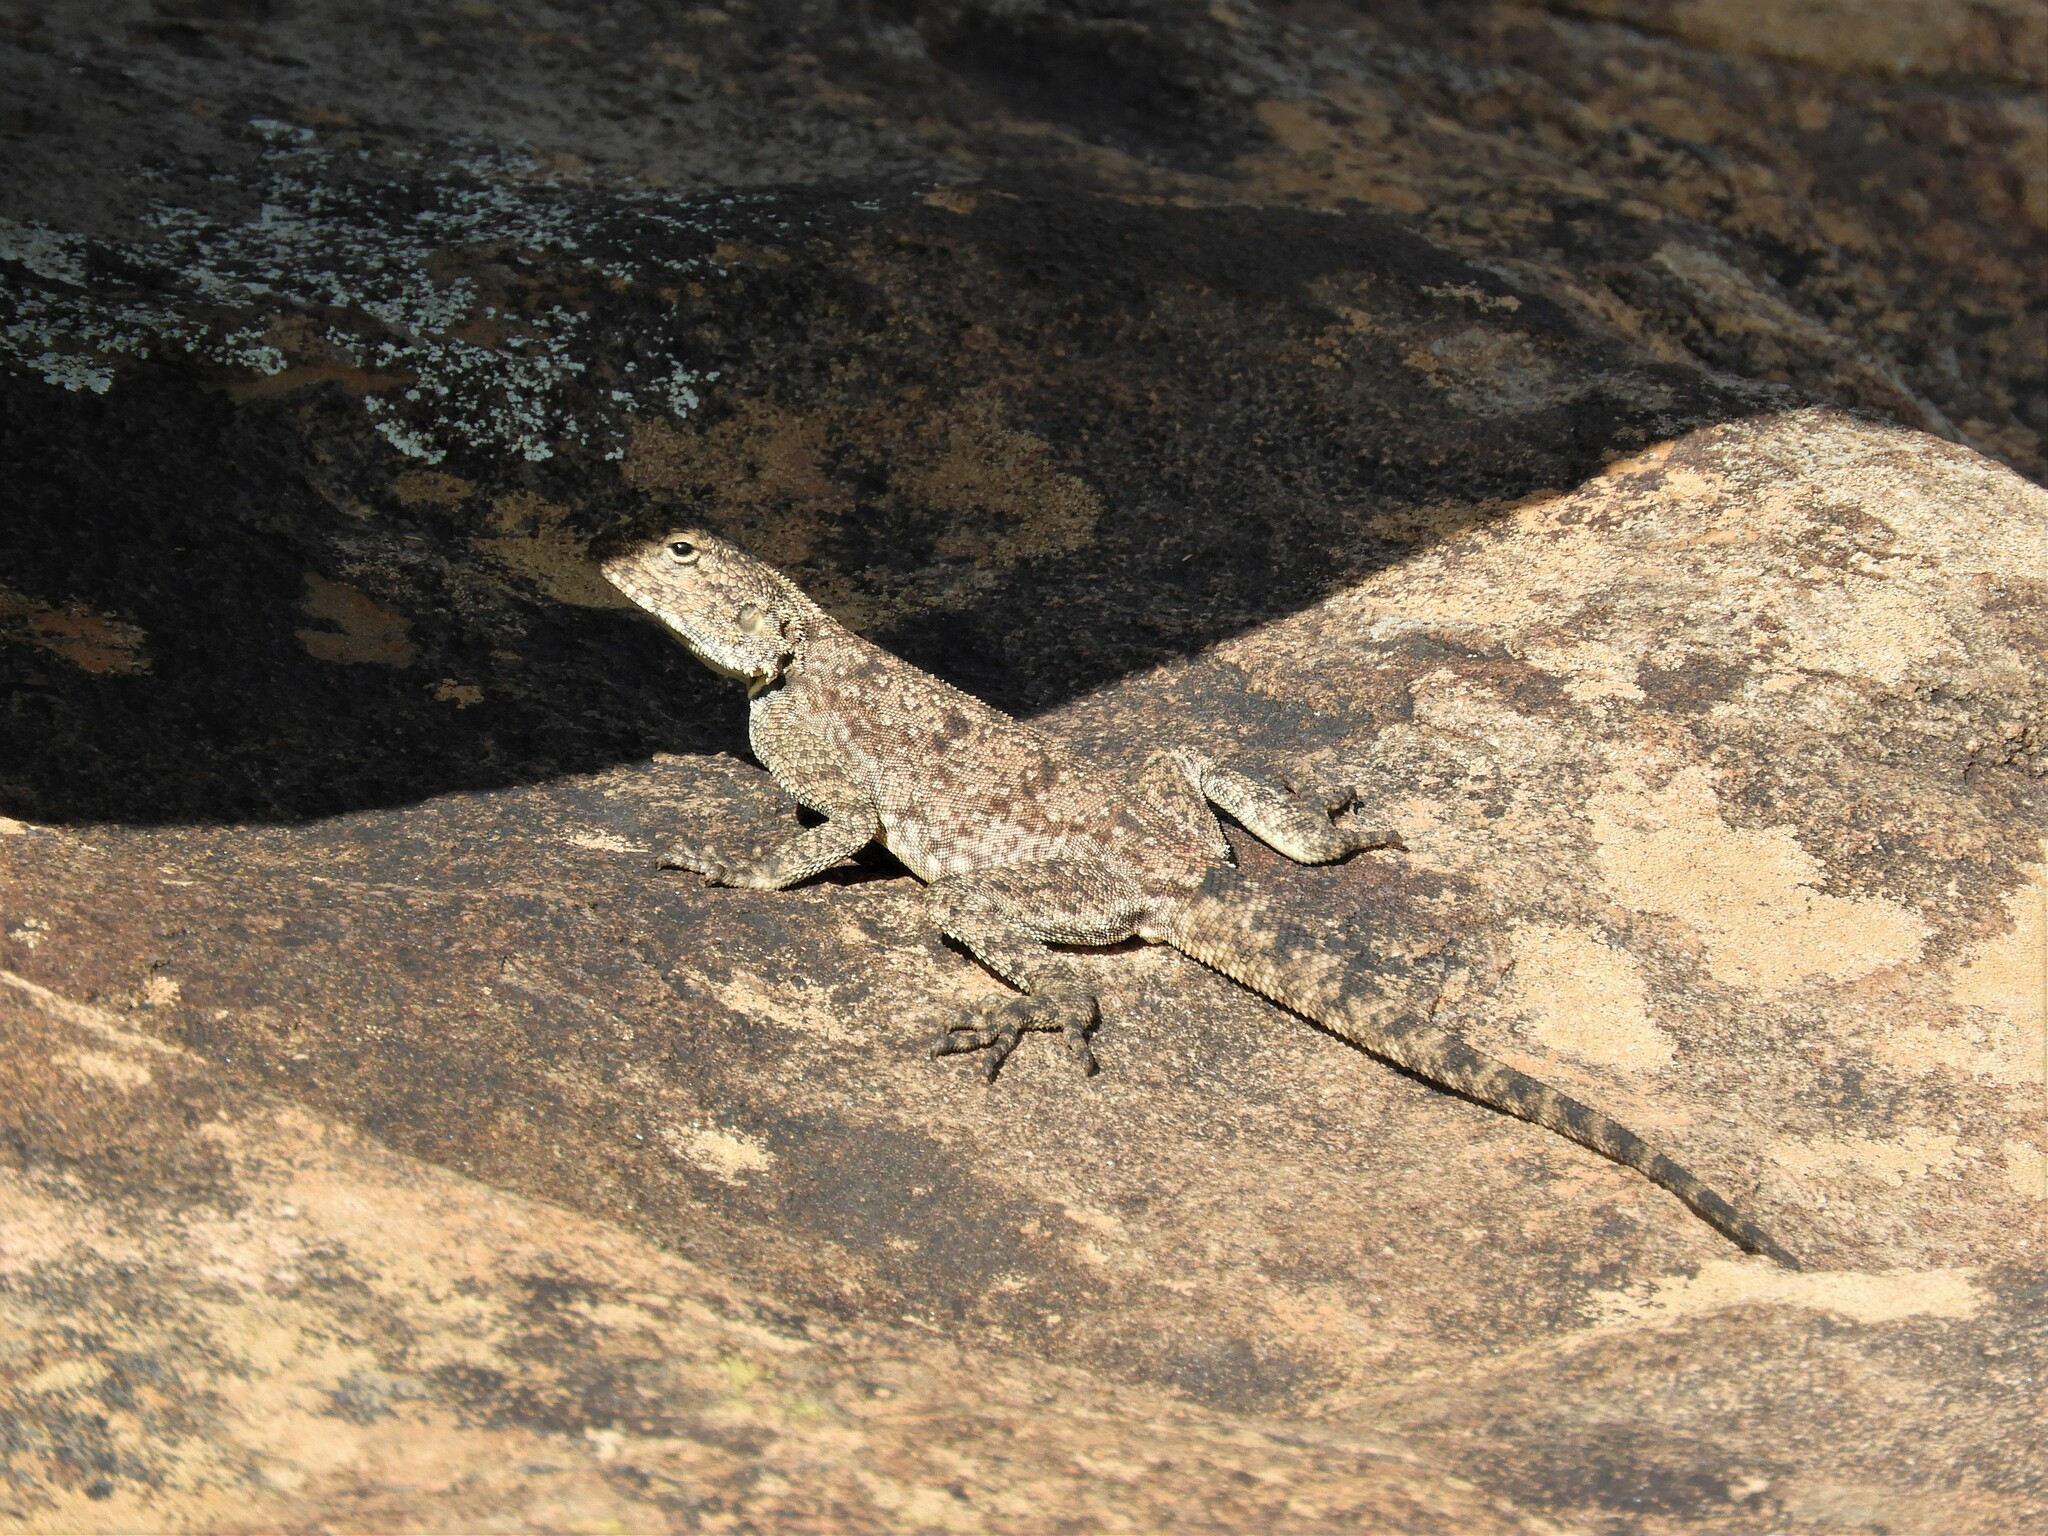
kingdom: Animalia
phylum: Chordata
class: Squamata
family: Agamidae
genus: Agama
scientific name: Agama atra
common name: Southern african rock agama
